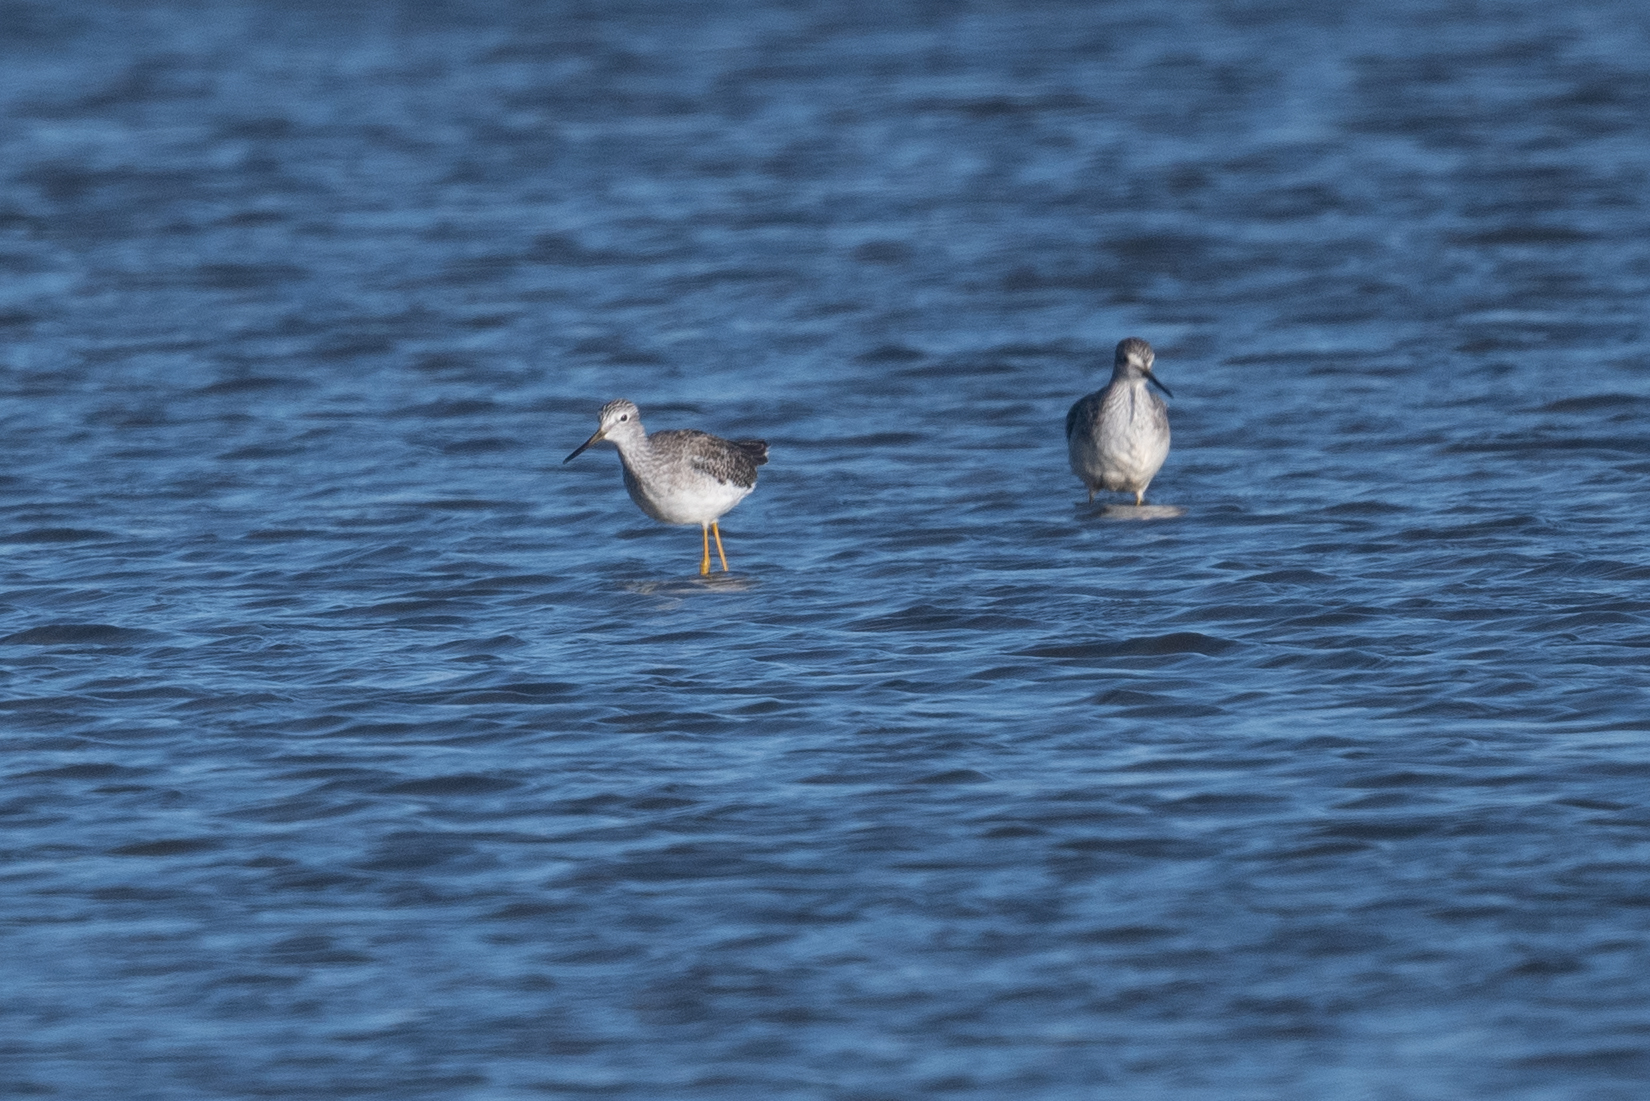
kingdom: Animalia
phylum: Chordata
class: Aves
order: Charadriiformes
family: Scolopacidae
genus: Tringa
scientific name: Tringa melanoleuca
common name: Greater yellowlegs
